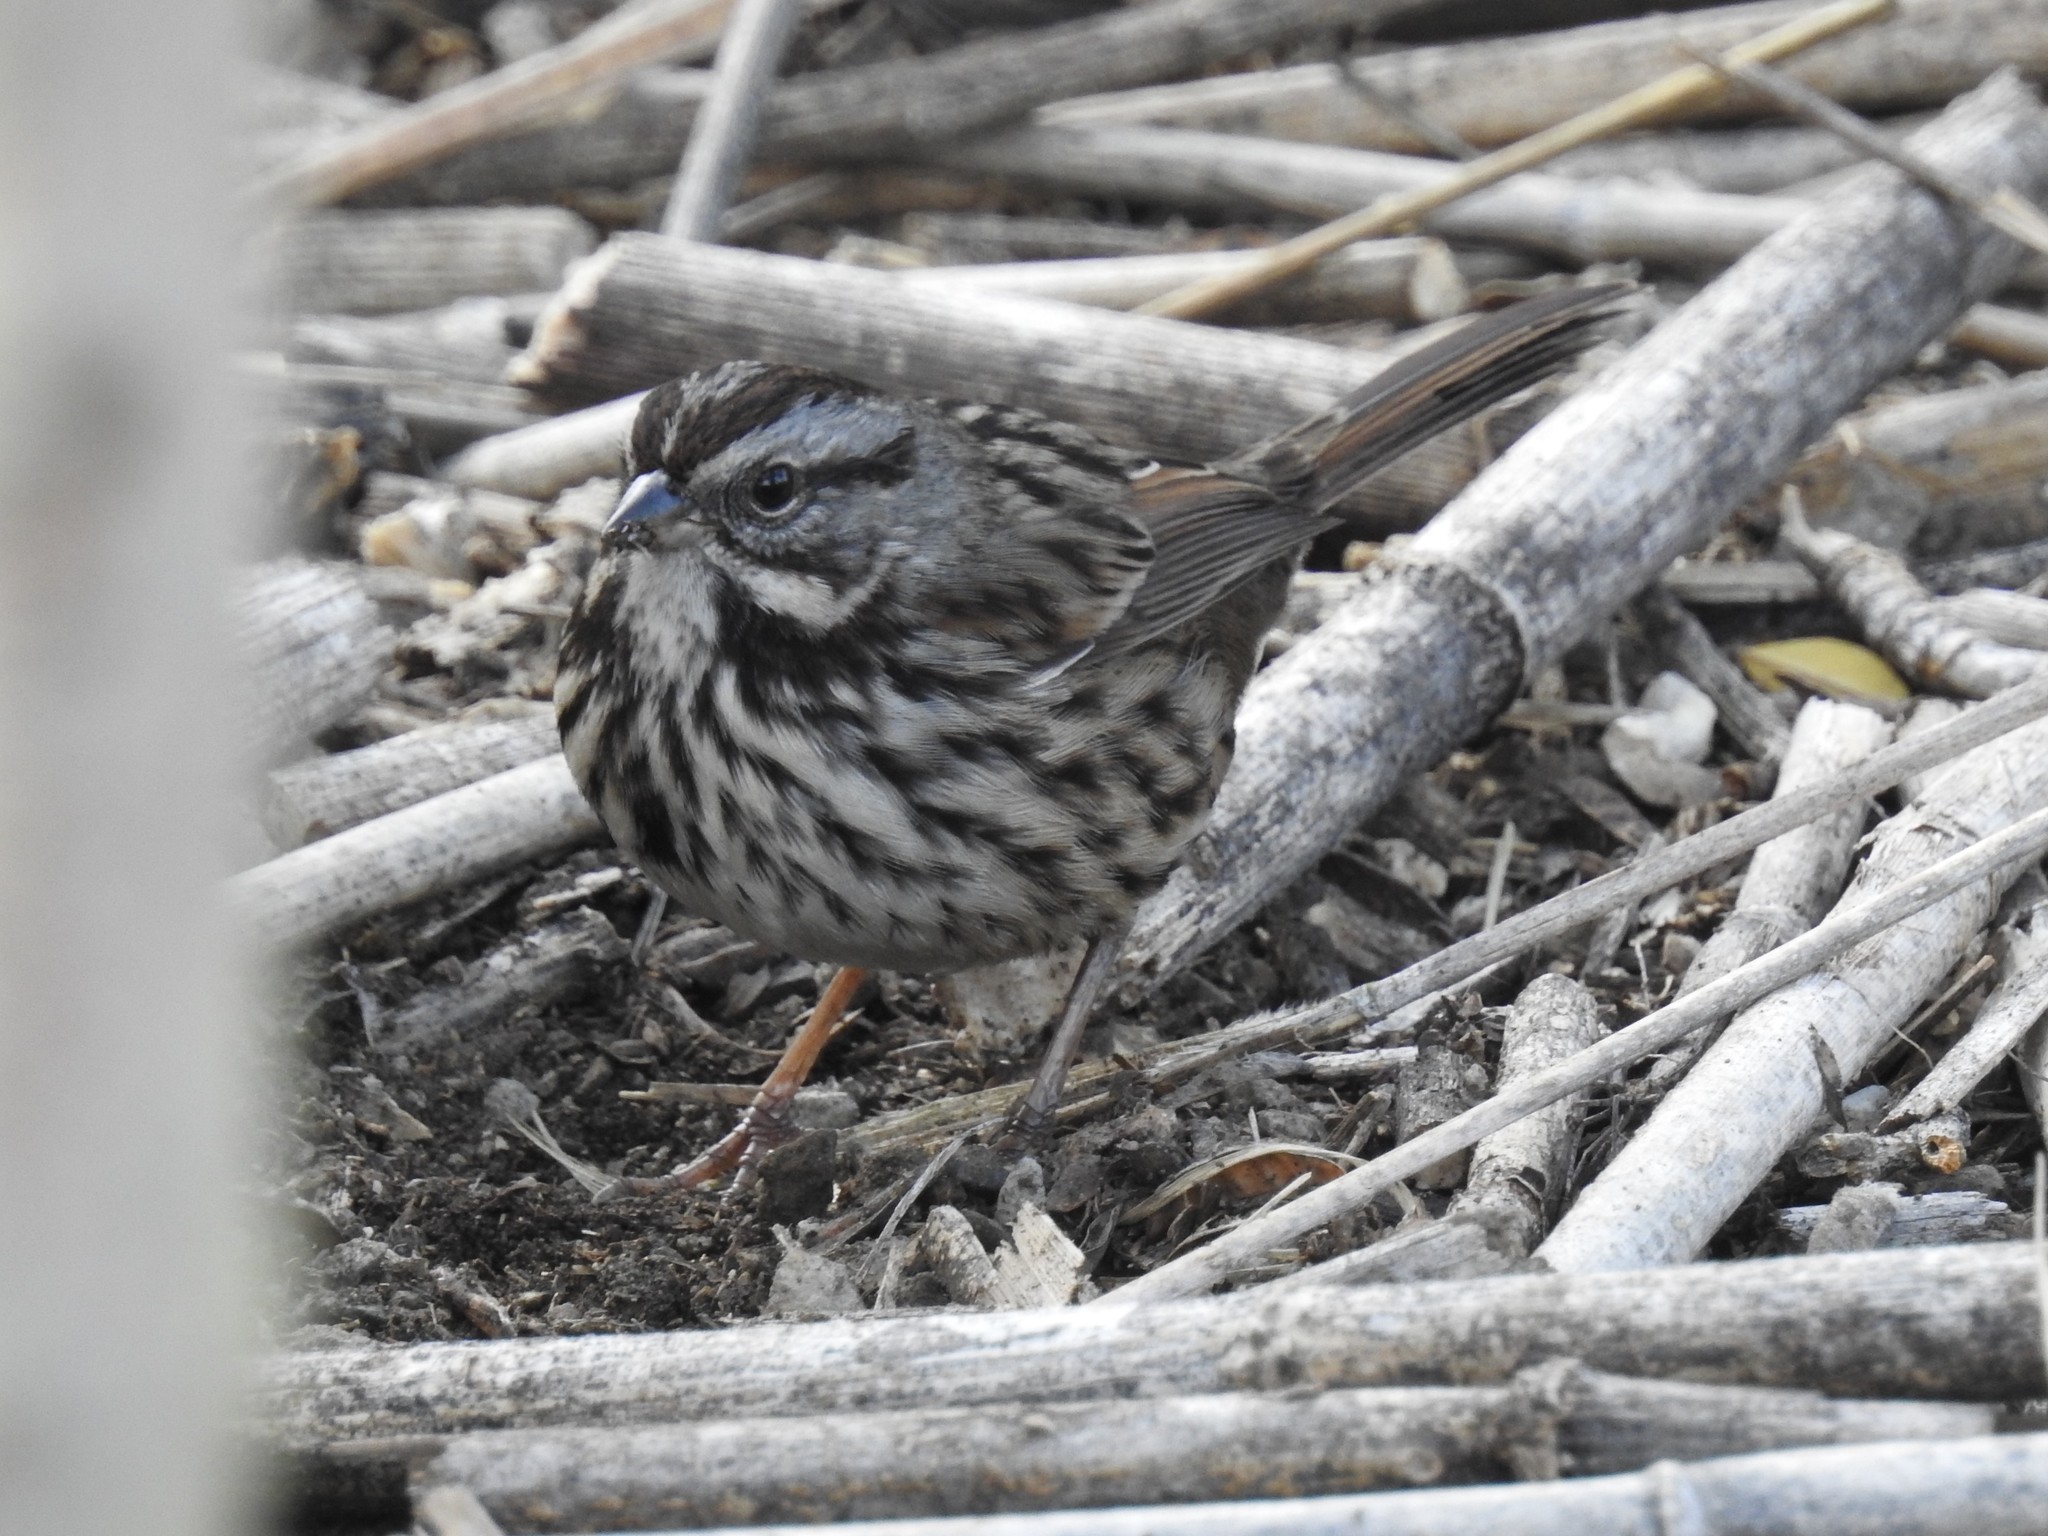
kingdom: Animalia
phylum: Chordata
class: Aves
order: Passeriformes
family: Passerellidae
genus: Melospiza
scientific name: Melospiza melodia
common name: Song sparrow
